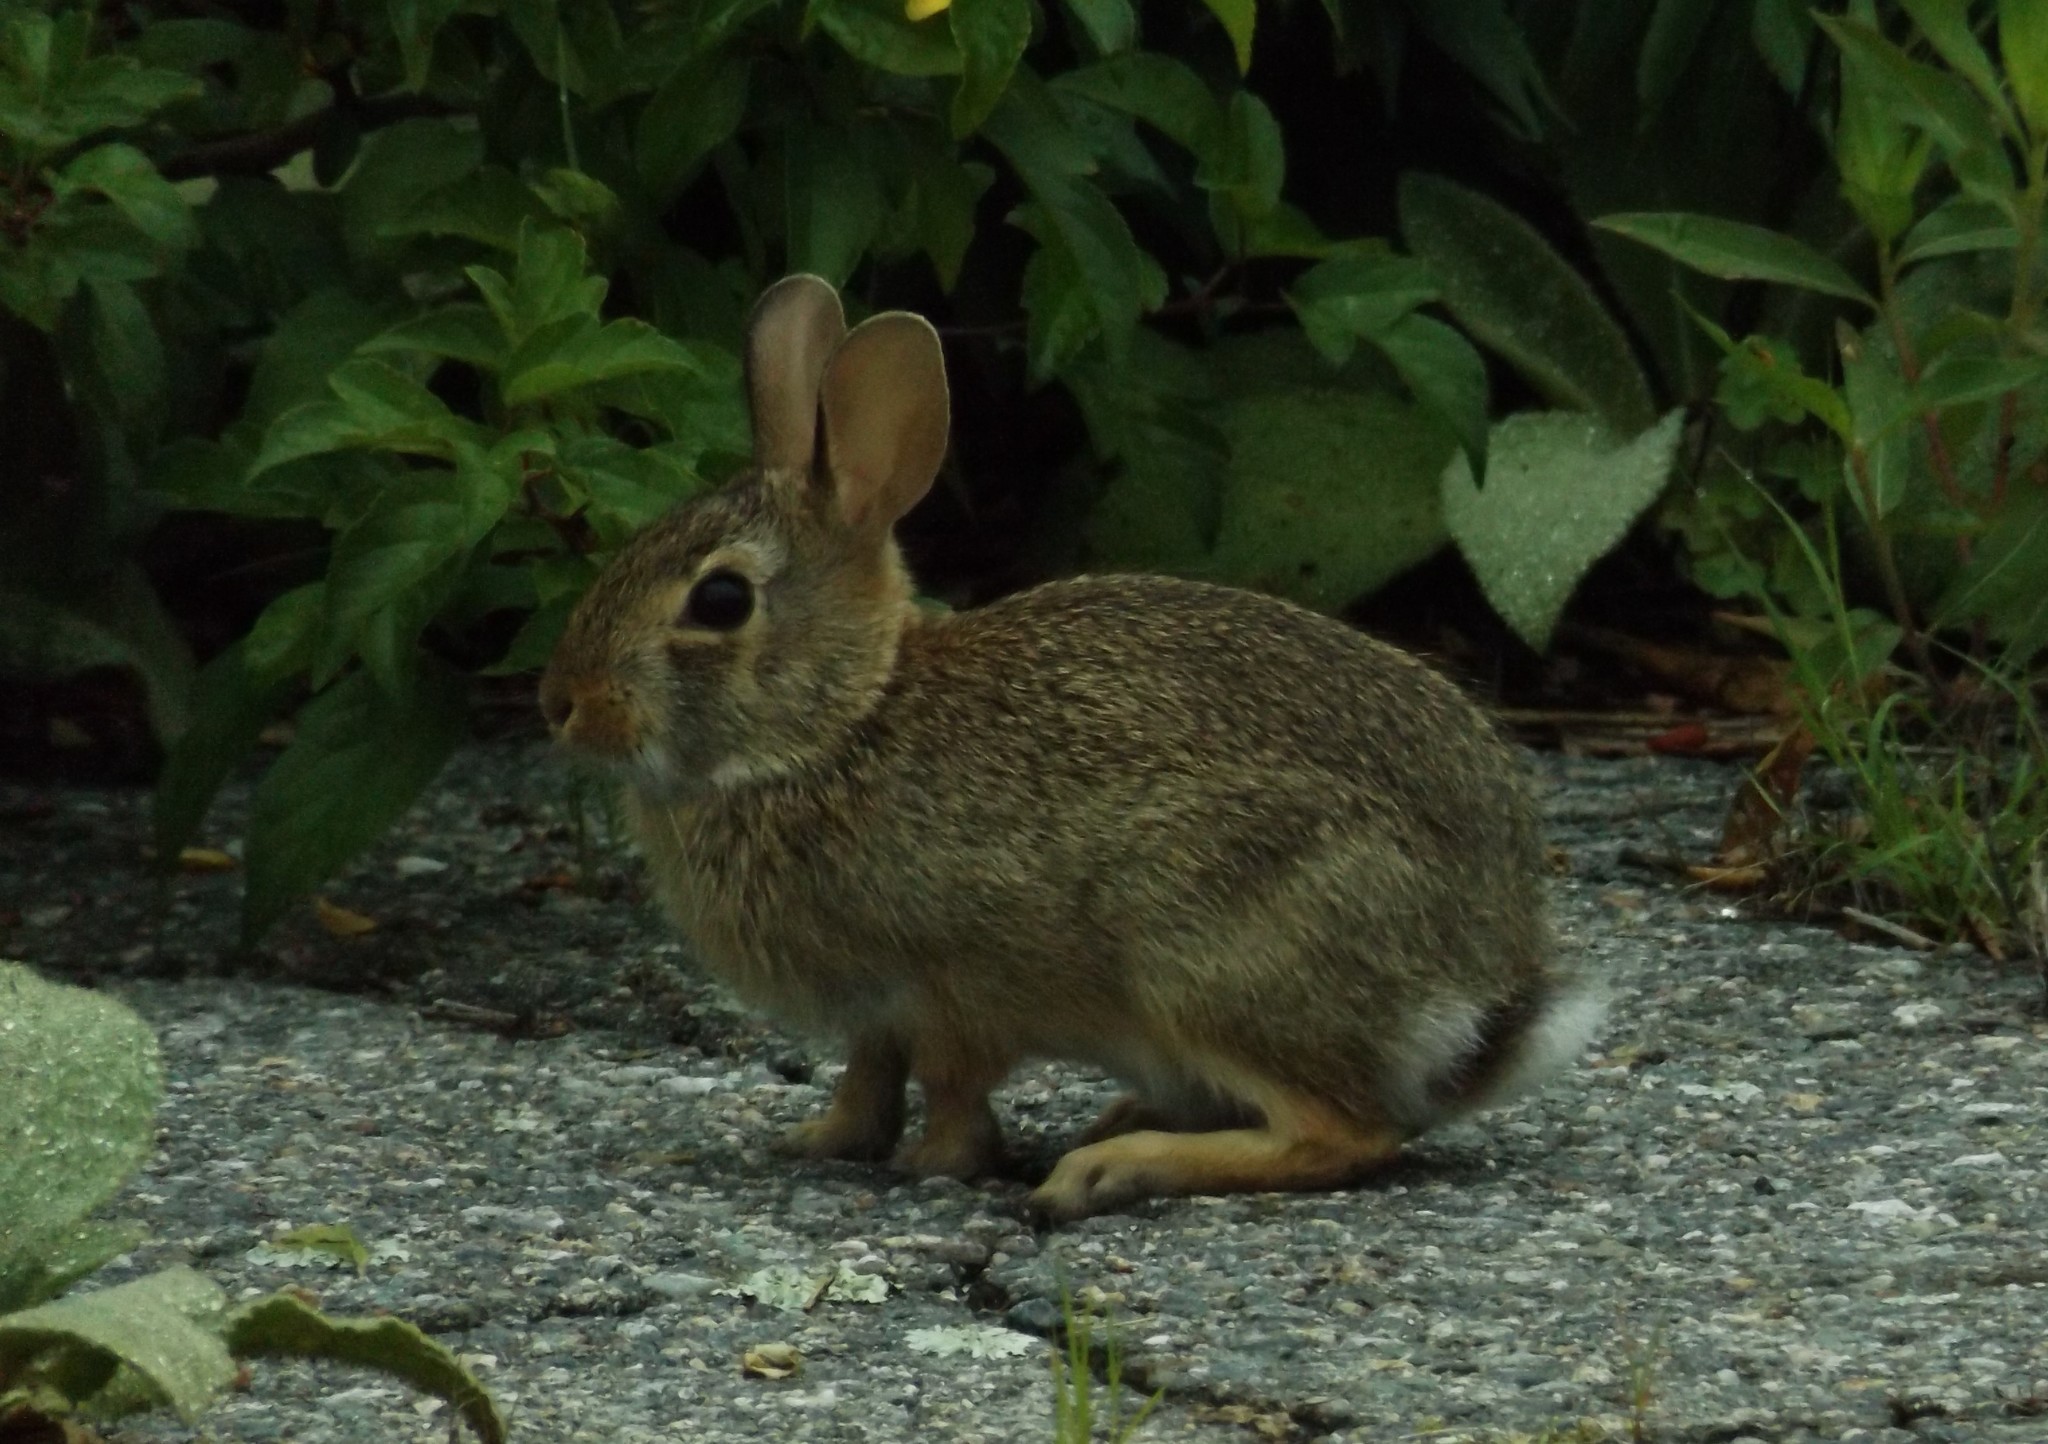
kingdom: Animalia
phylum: Chordata
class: Mammalia
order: Lagomorpha
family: Leporidae
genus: Sylvilagus
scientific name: Sylvilagus floridanus
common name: Eastern cottontail
